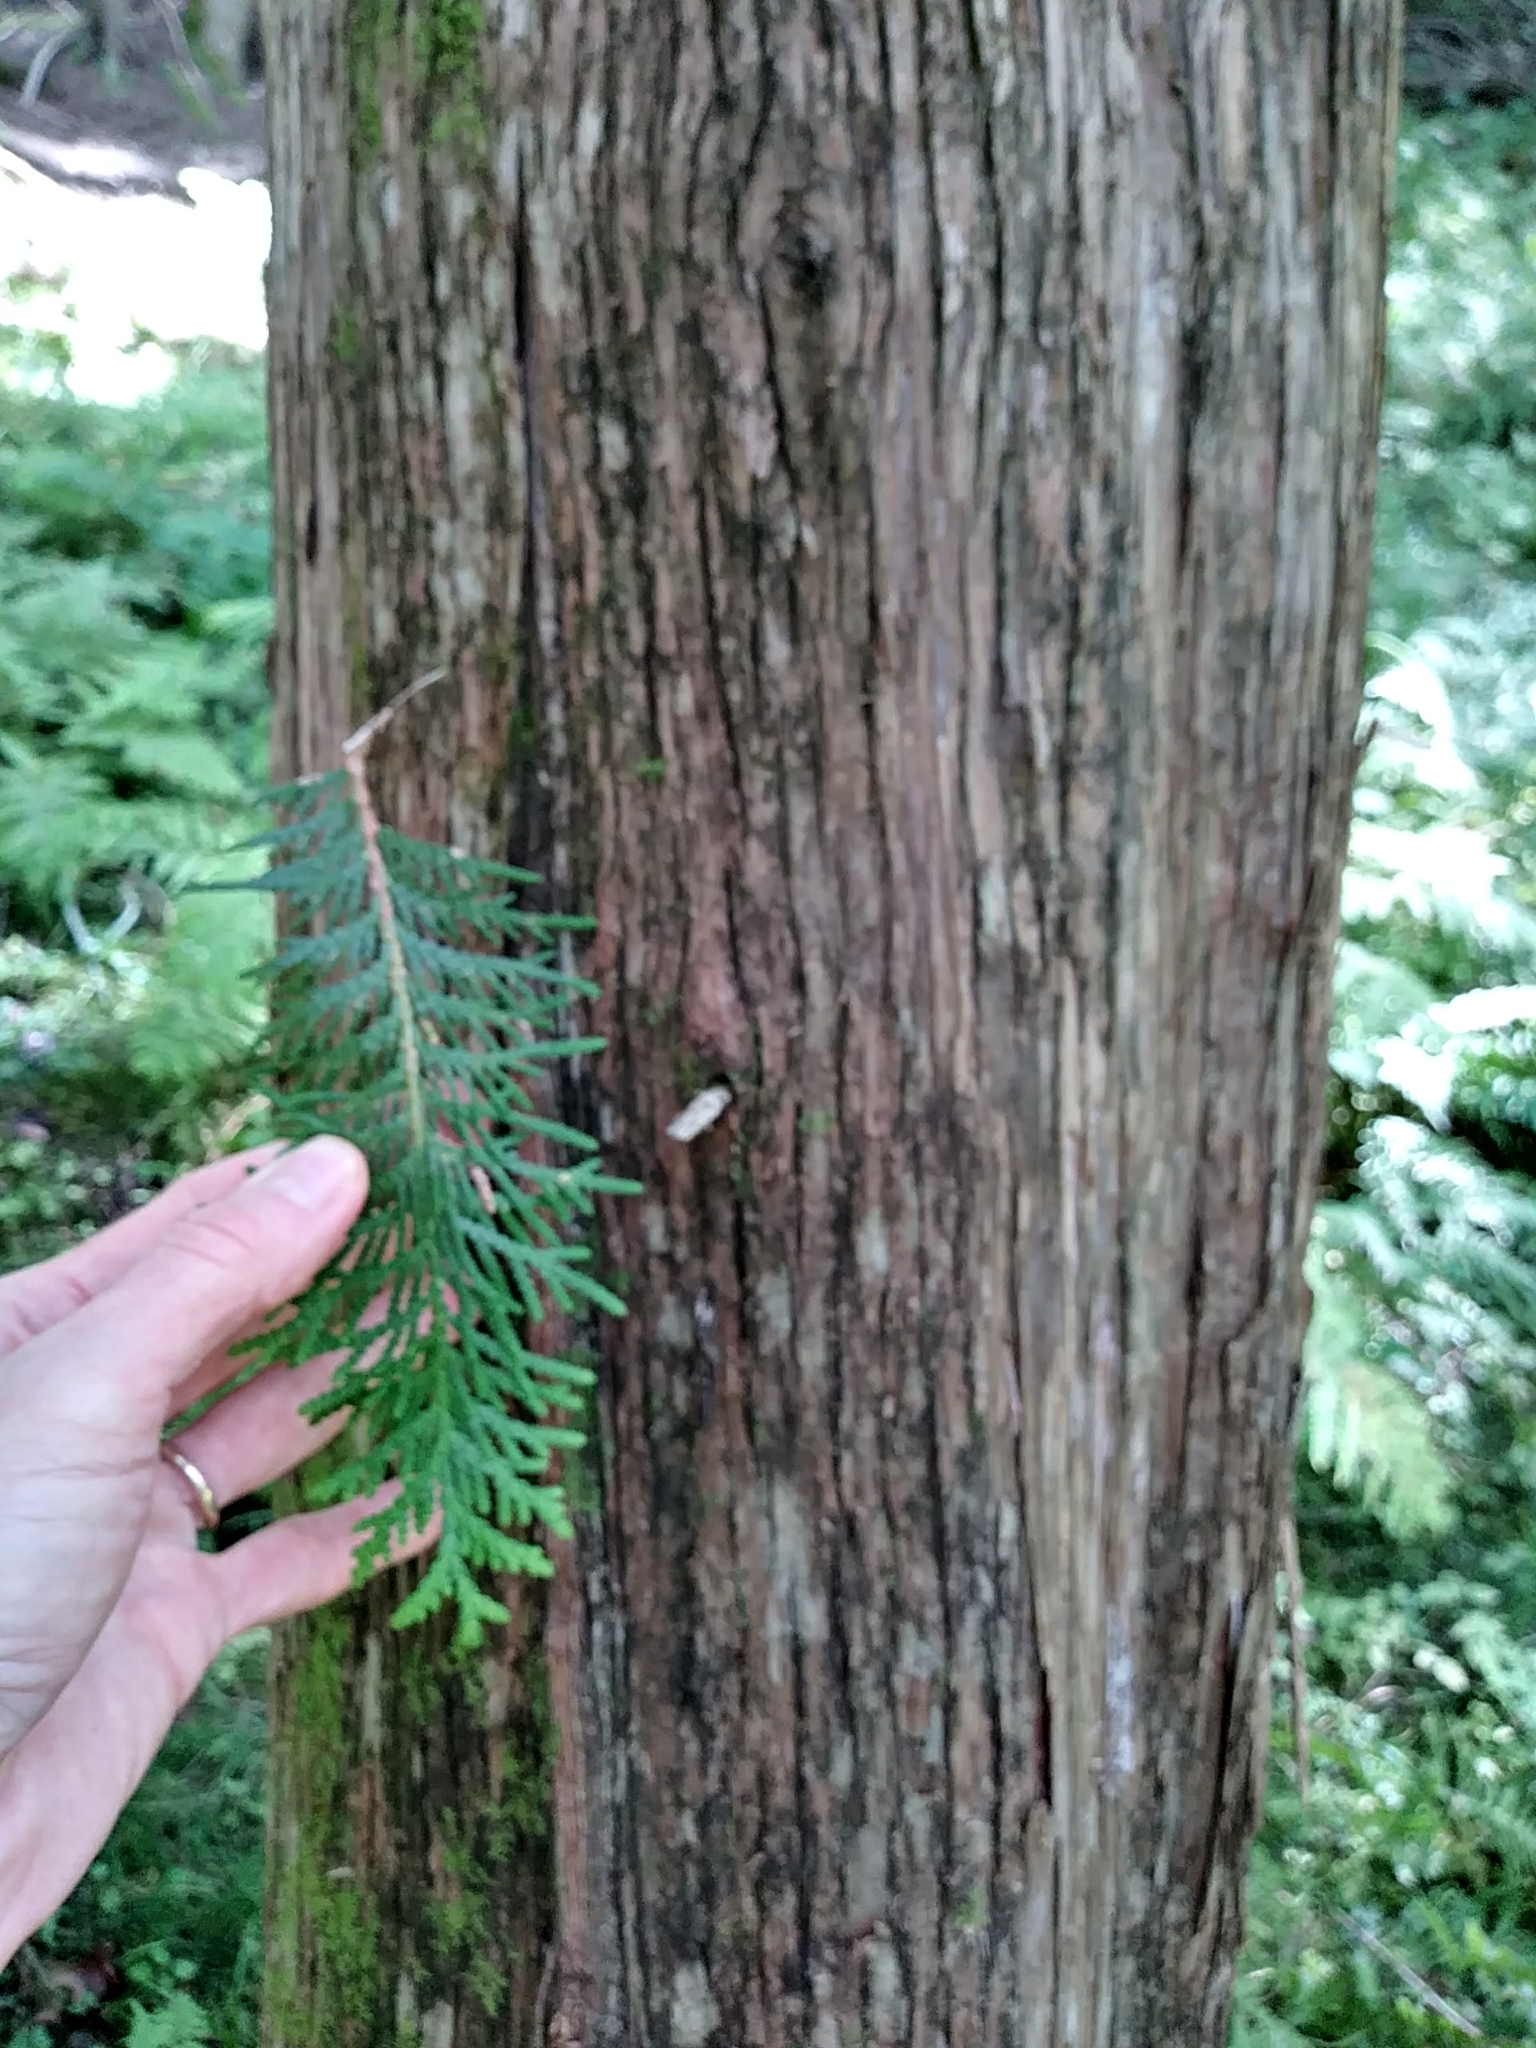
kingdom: Plantae
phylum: Tracheophyta
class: Pinopsida
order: Pinales
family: Cupressaceae
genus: Thuja
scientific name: Thuja occidentalis
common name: Northern white-cedar
